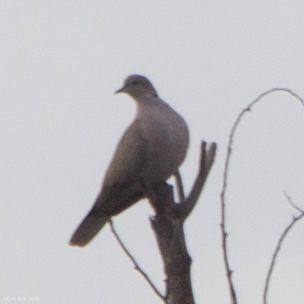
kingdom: Animalia
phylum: Chordata
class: Aves
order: Columbiformes
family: Columbidae
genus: Streptopelia
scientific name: Streptopelia decaocto
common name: Eurasian collared dove
